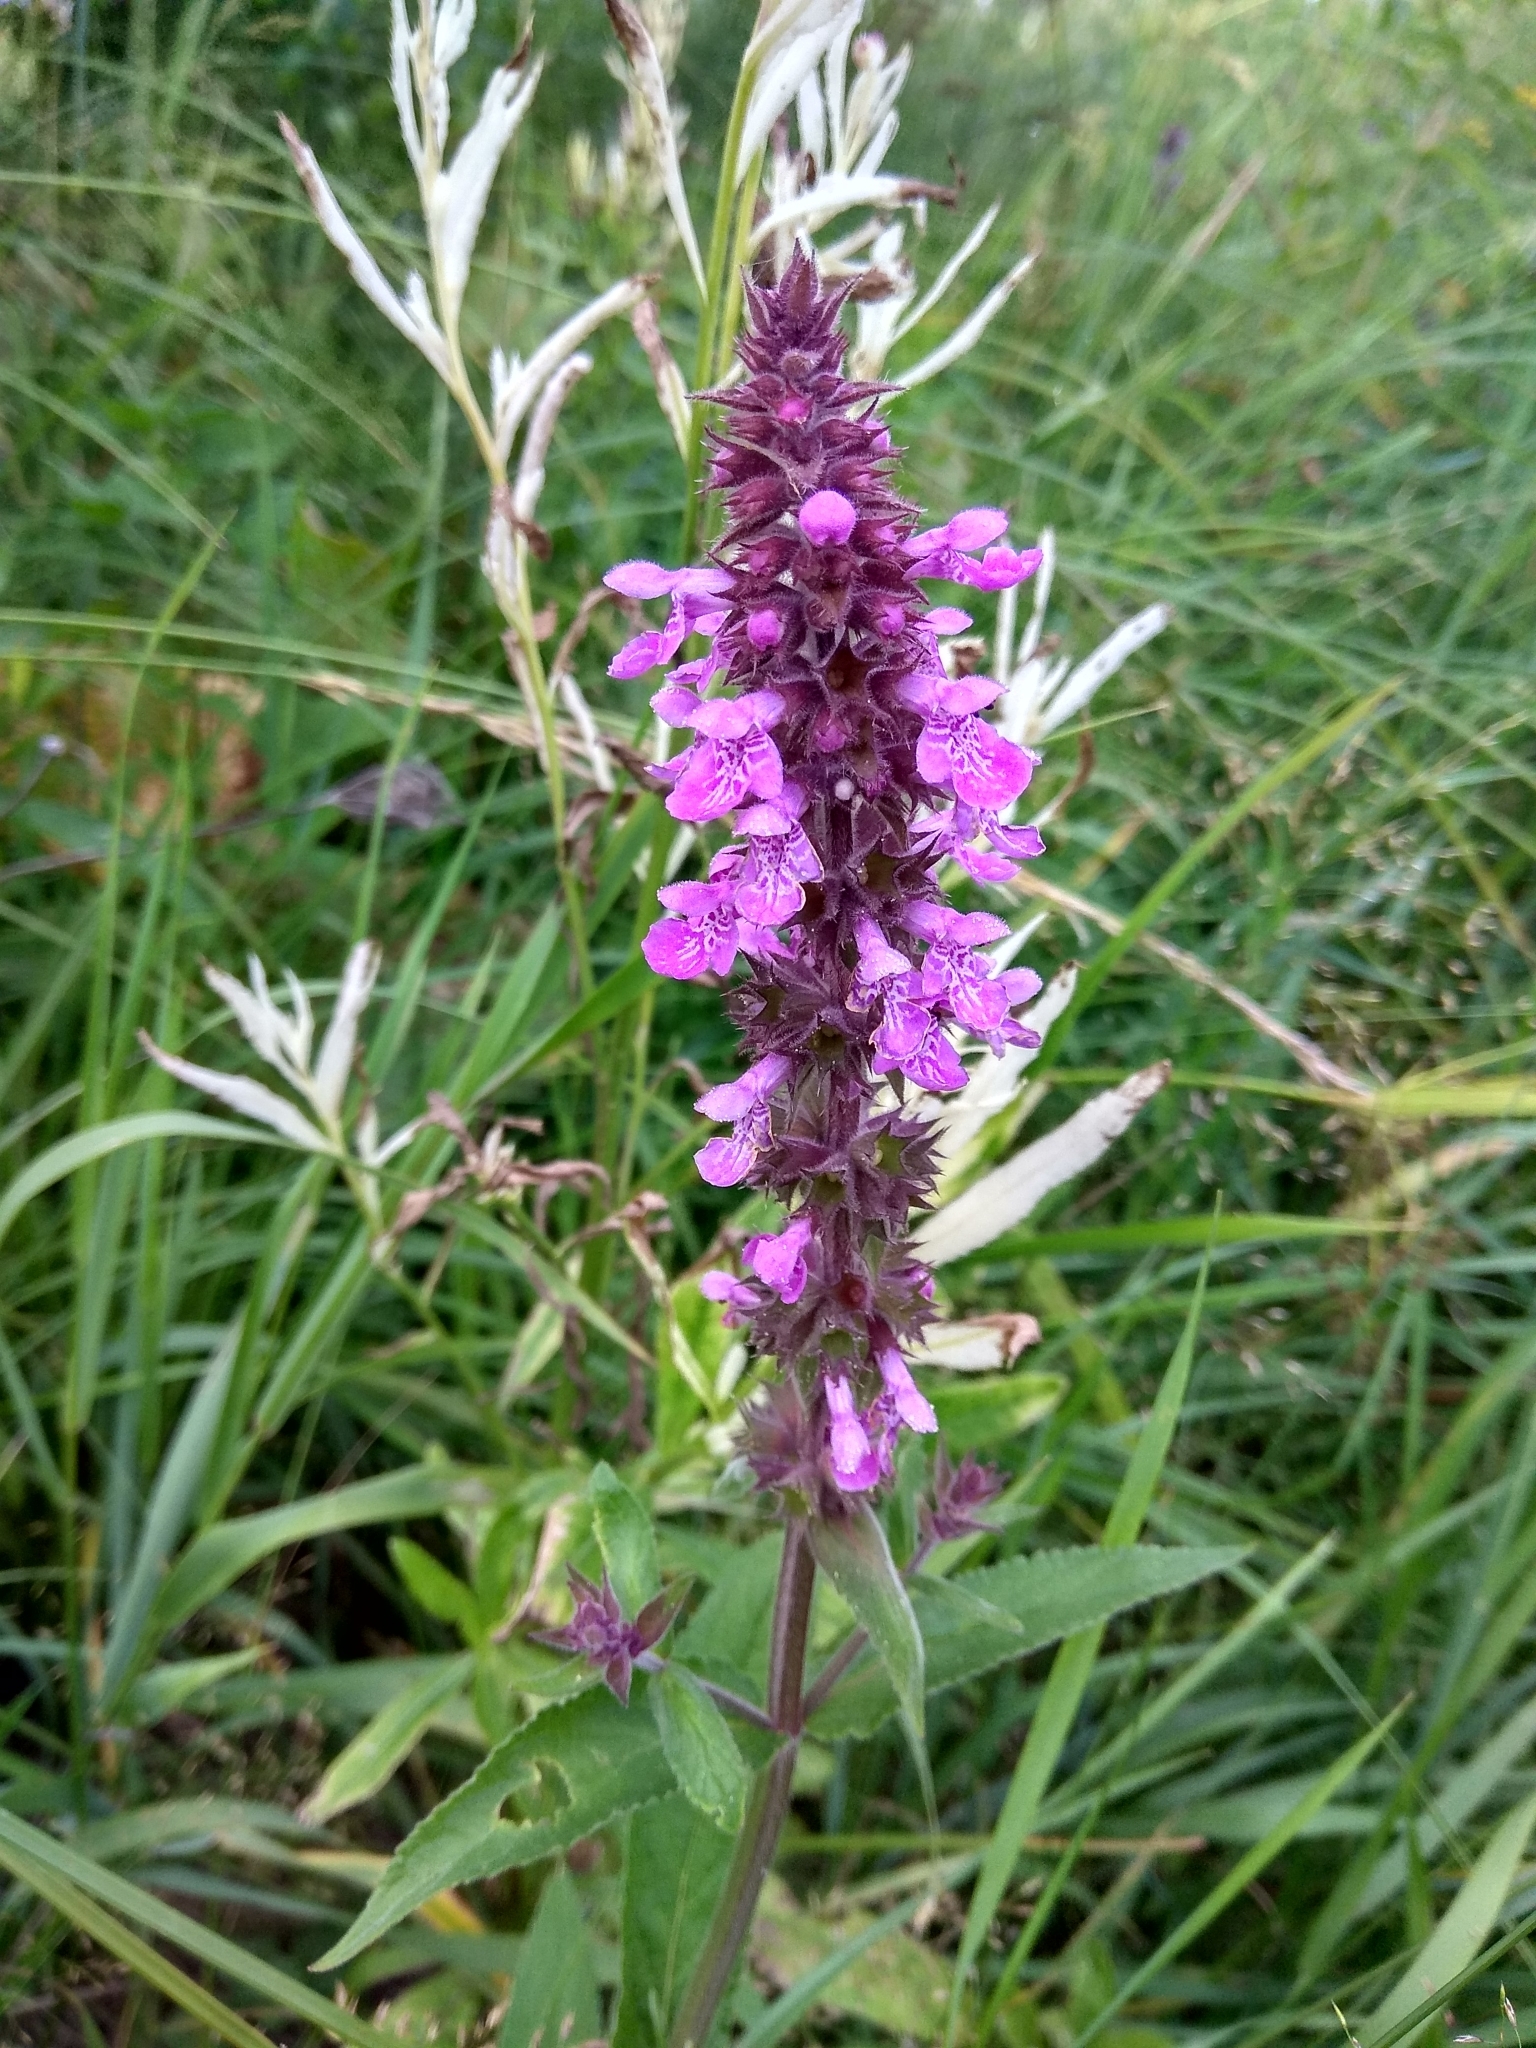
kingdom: Plantae
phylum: Tracheophyta
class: Magnoliopsida
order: Lamiales
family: Lamiaceae
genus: Stachys
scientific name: Stachys palustris
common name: Marsh woundwort
